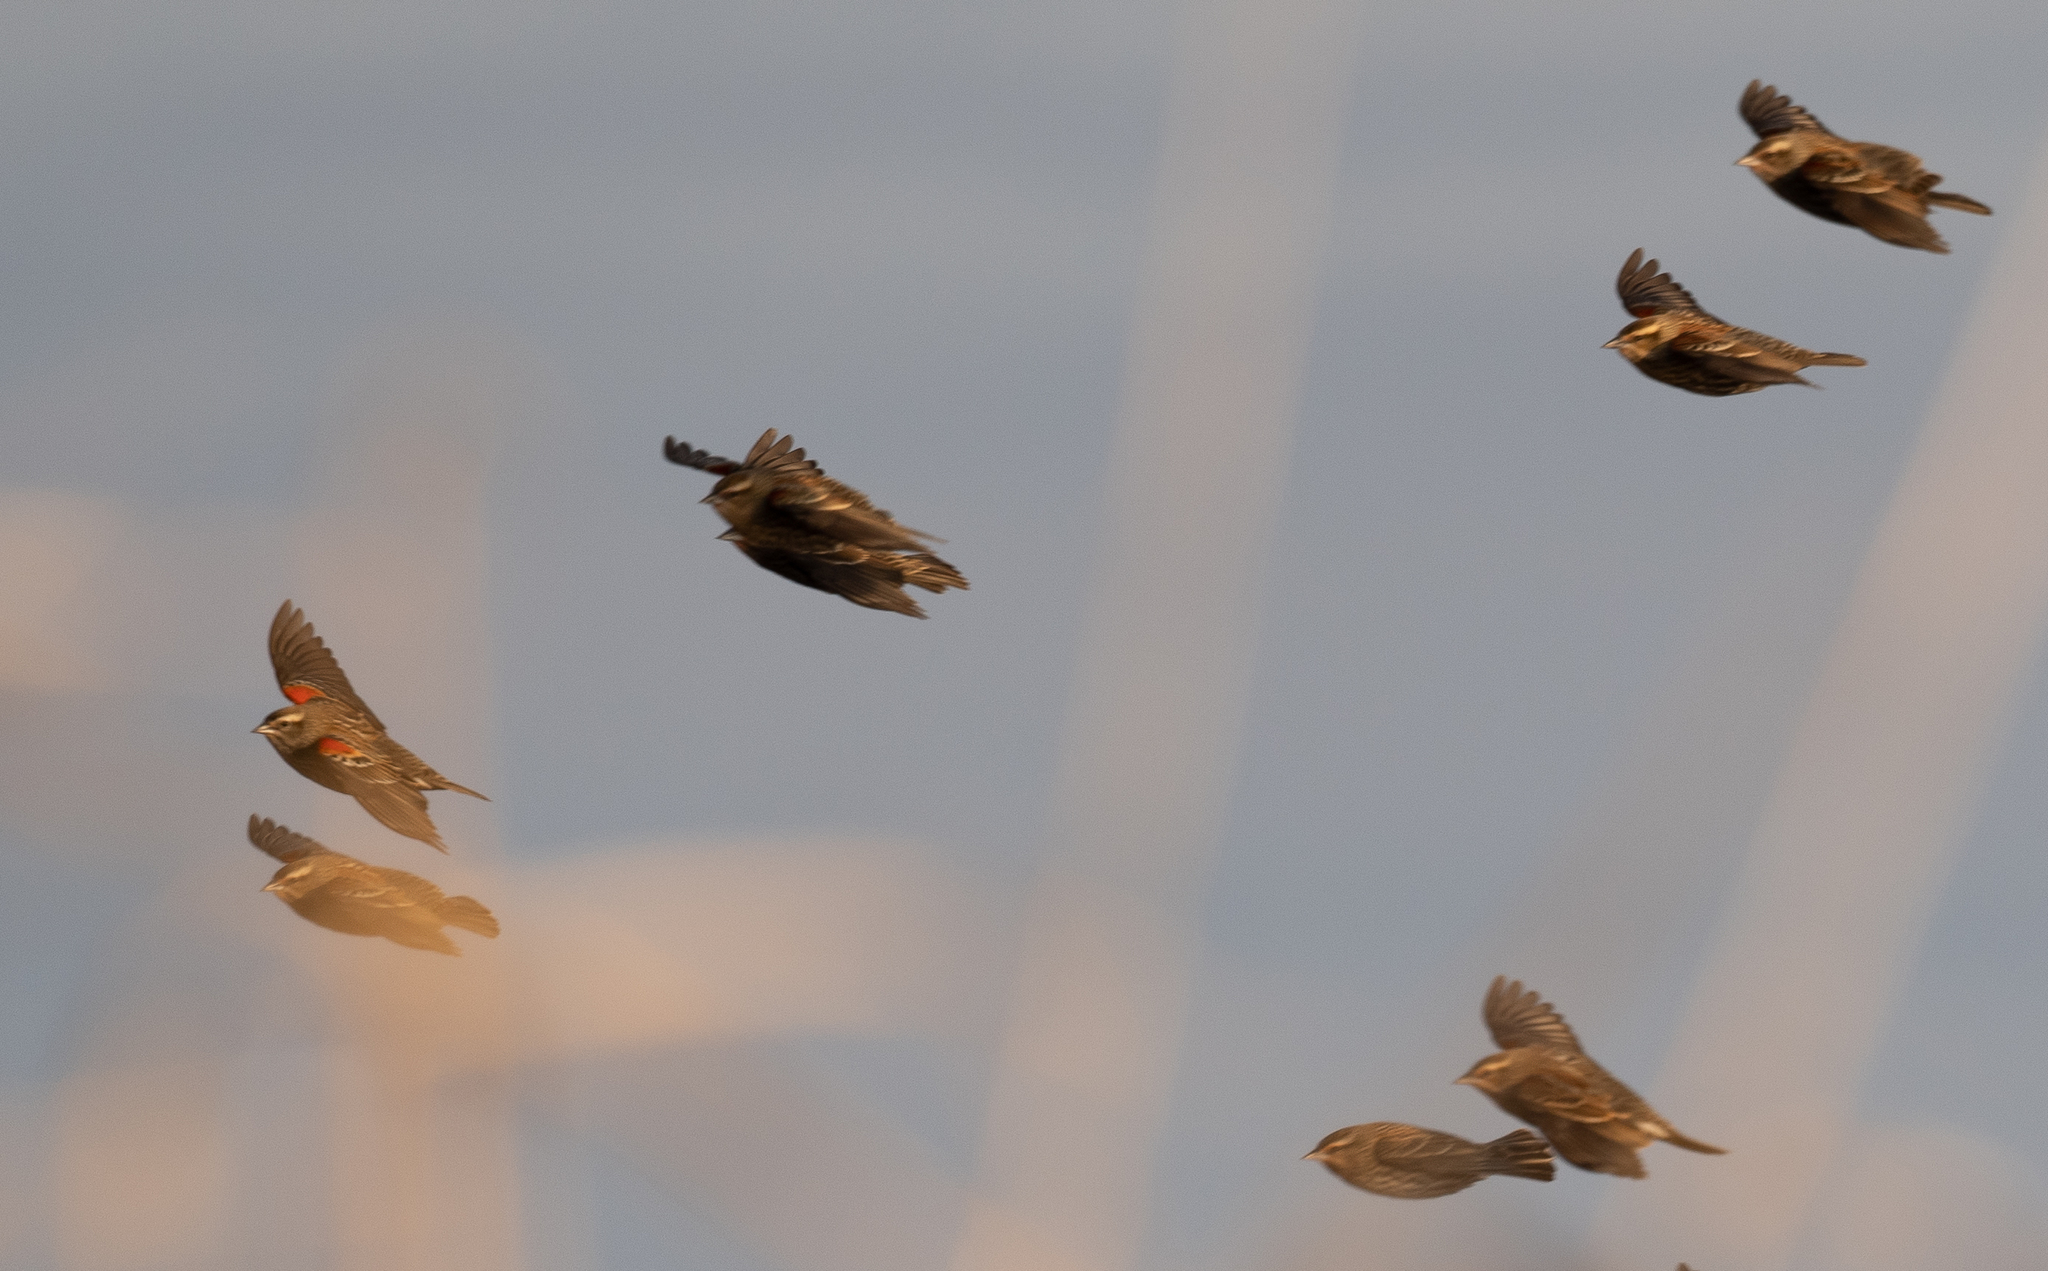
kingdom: Animalia
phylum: Chordata
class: Aves
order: Passeriformes
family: Icteridae
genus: Agelaius
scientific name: Agelaius phoeniceus
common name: Red-winged blackbird
